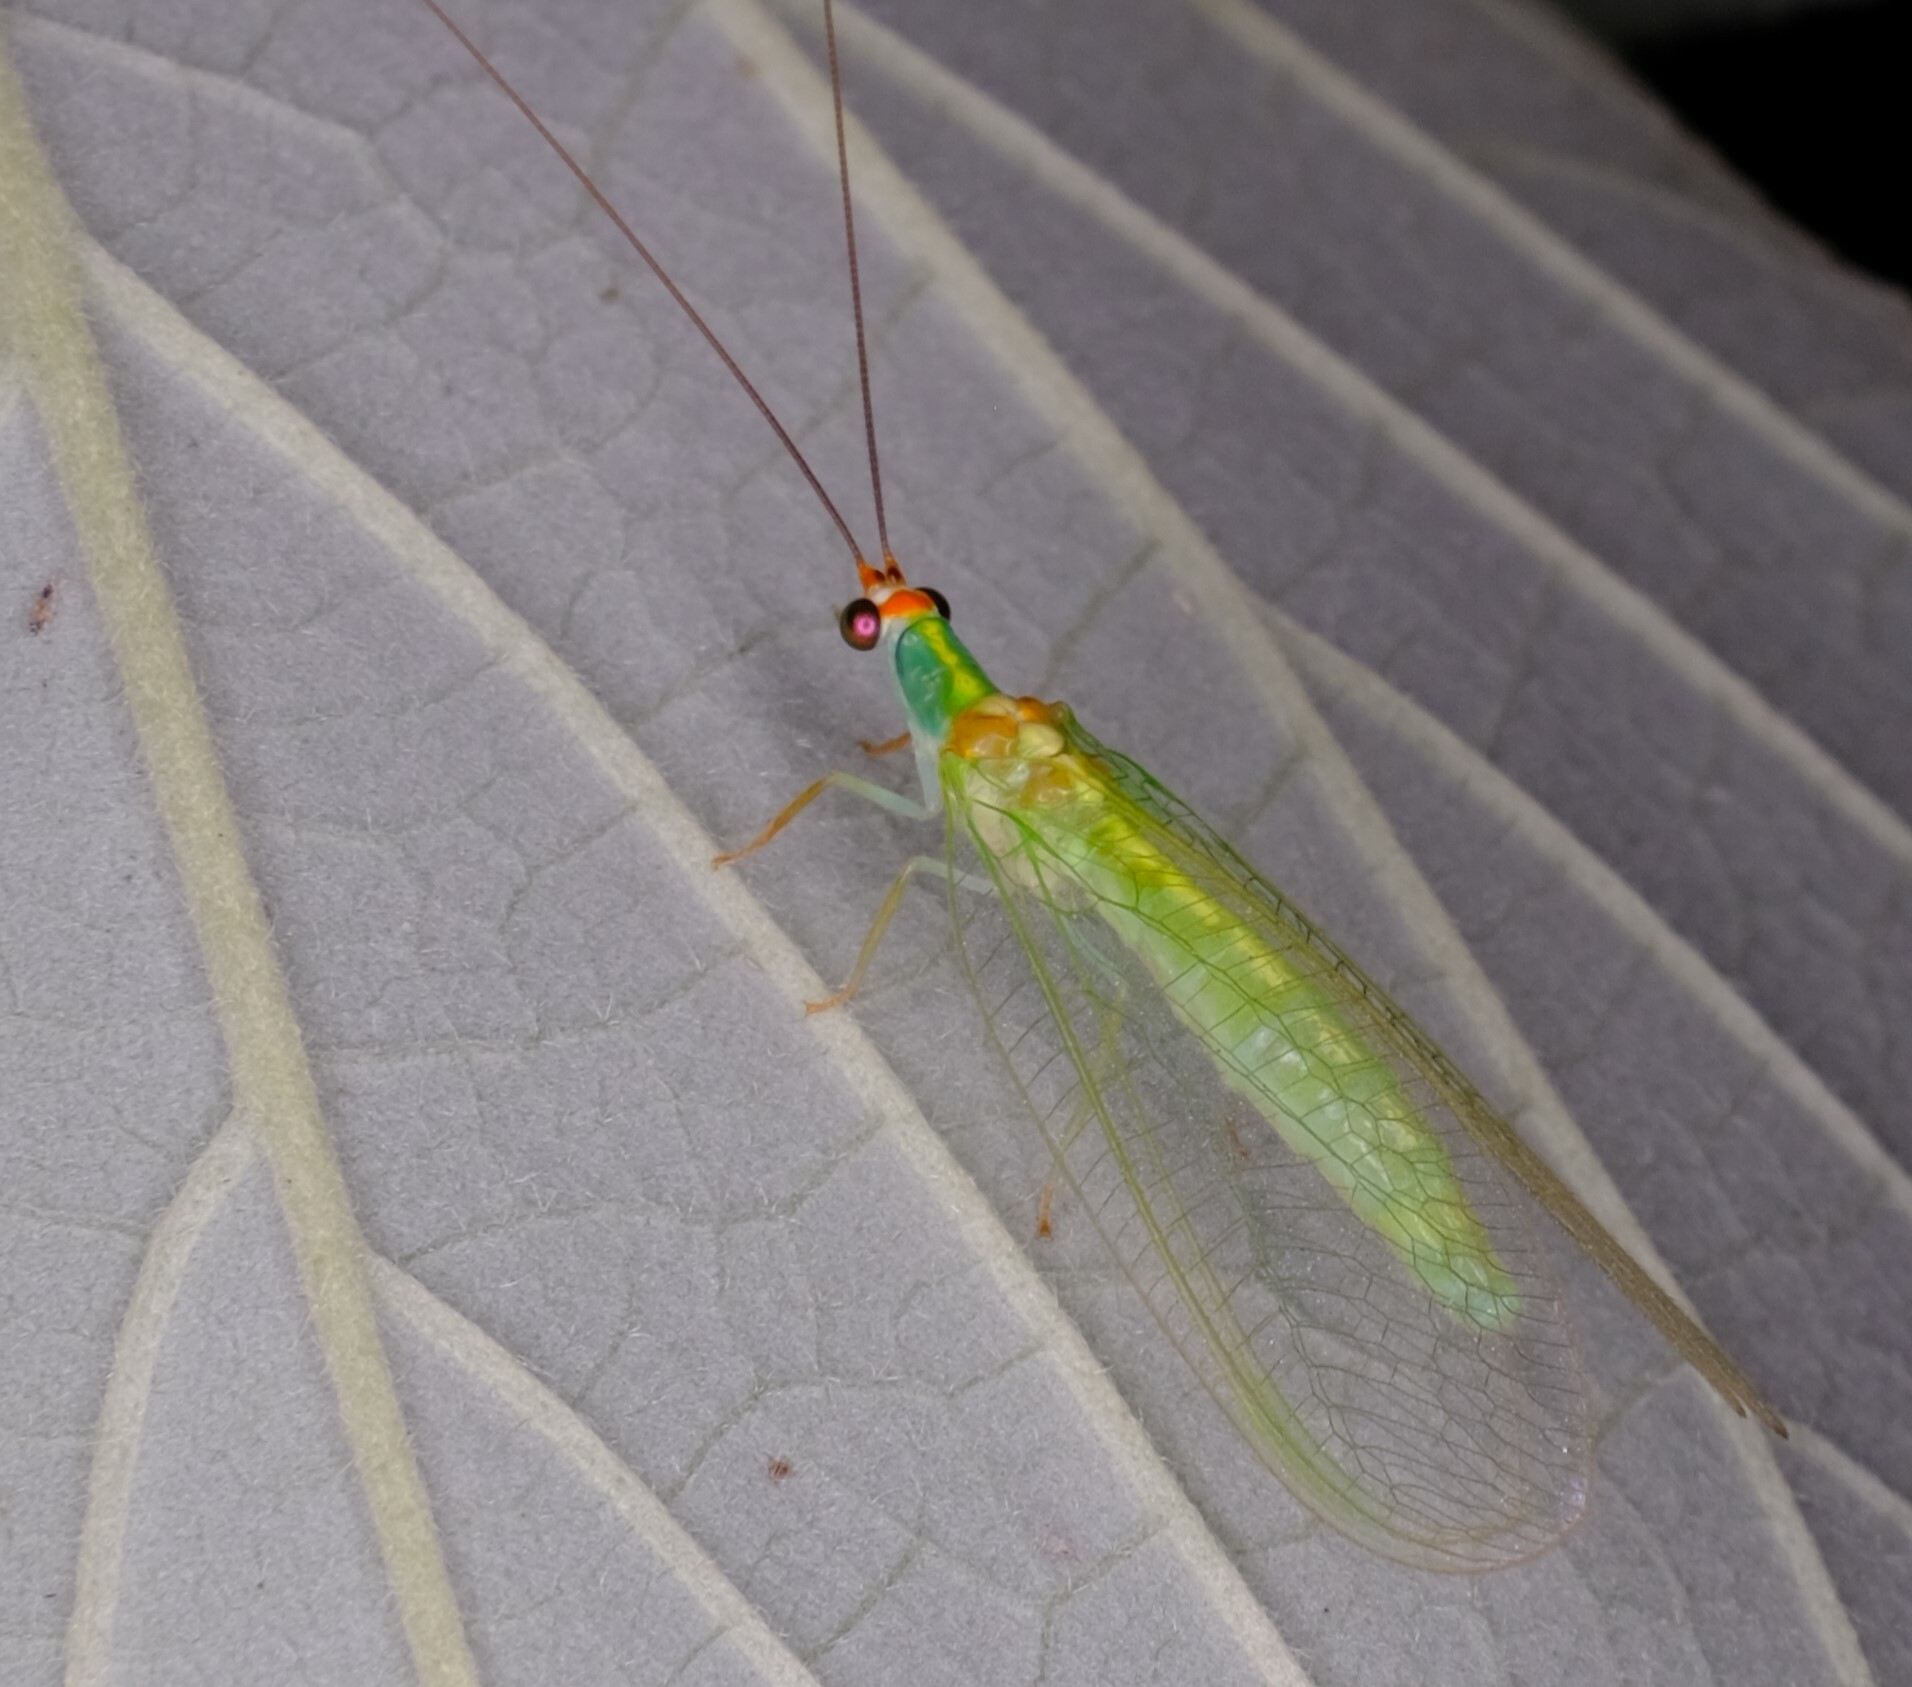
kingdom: Animalia
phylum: Arthropoda
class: Insecta
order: Neuroptera
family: Chrysopidae
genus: Plesiochrysa
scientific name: Plesiochrysa atalotis
